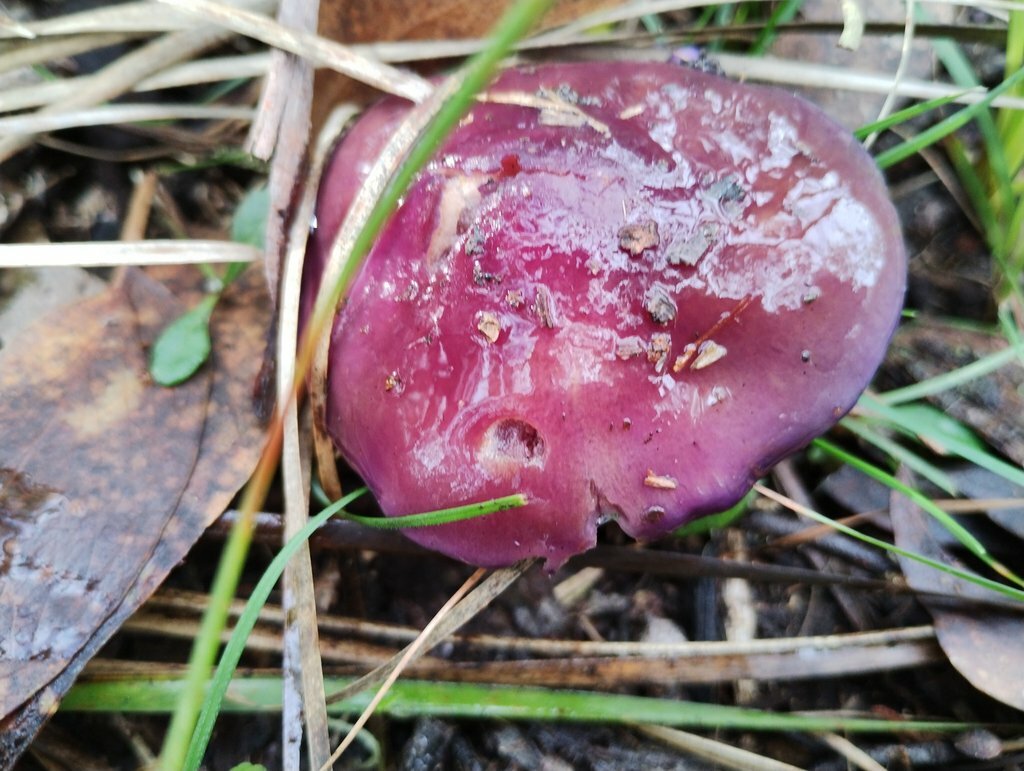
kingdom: Fungi
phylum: Basidiomycota
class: Agaricomycetes
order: Agaricales
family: Cortinariaceae
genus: Cortinarius
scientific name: Cortinarius archeri
